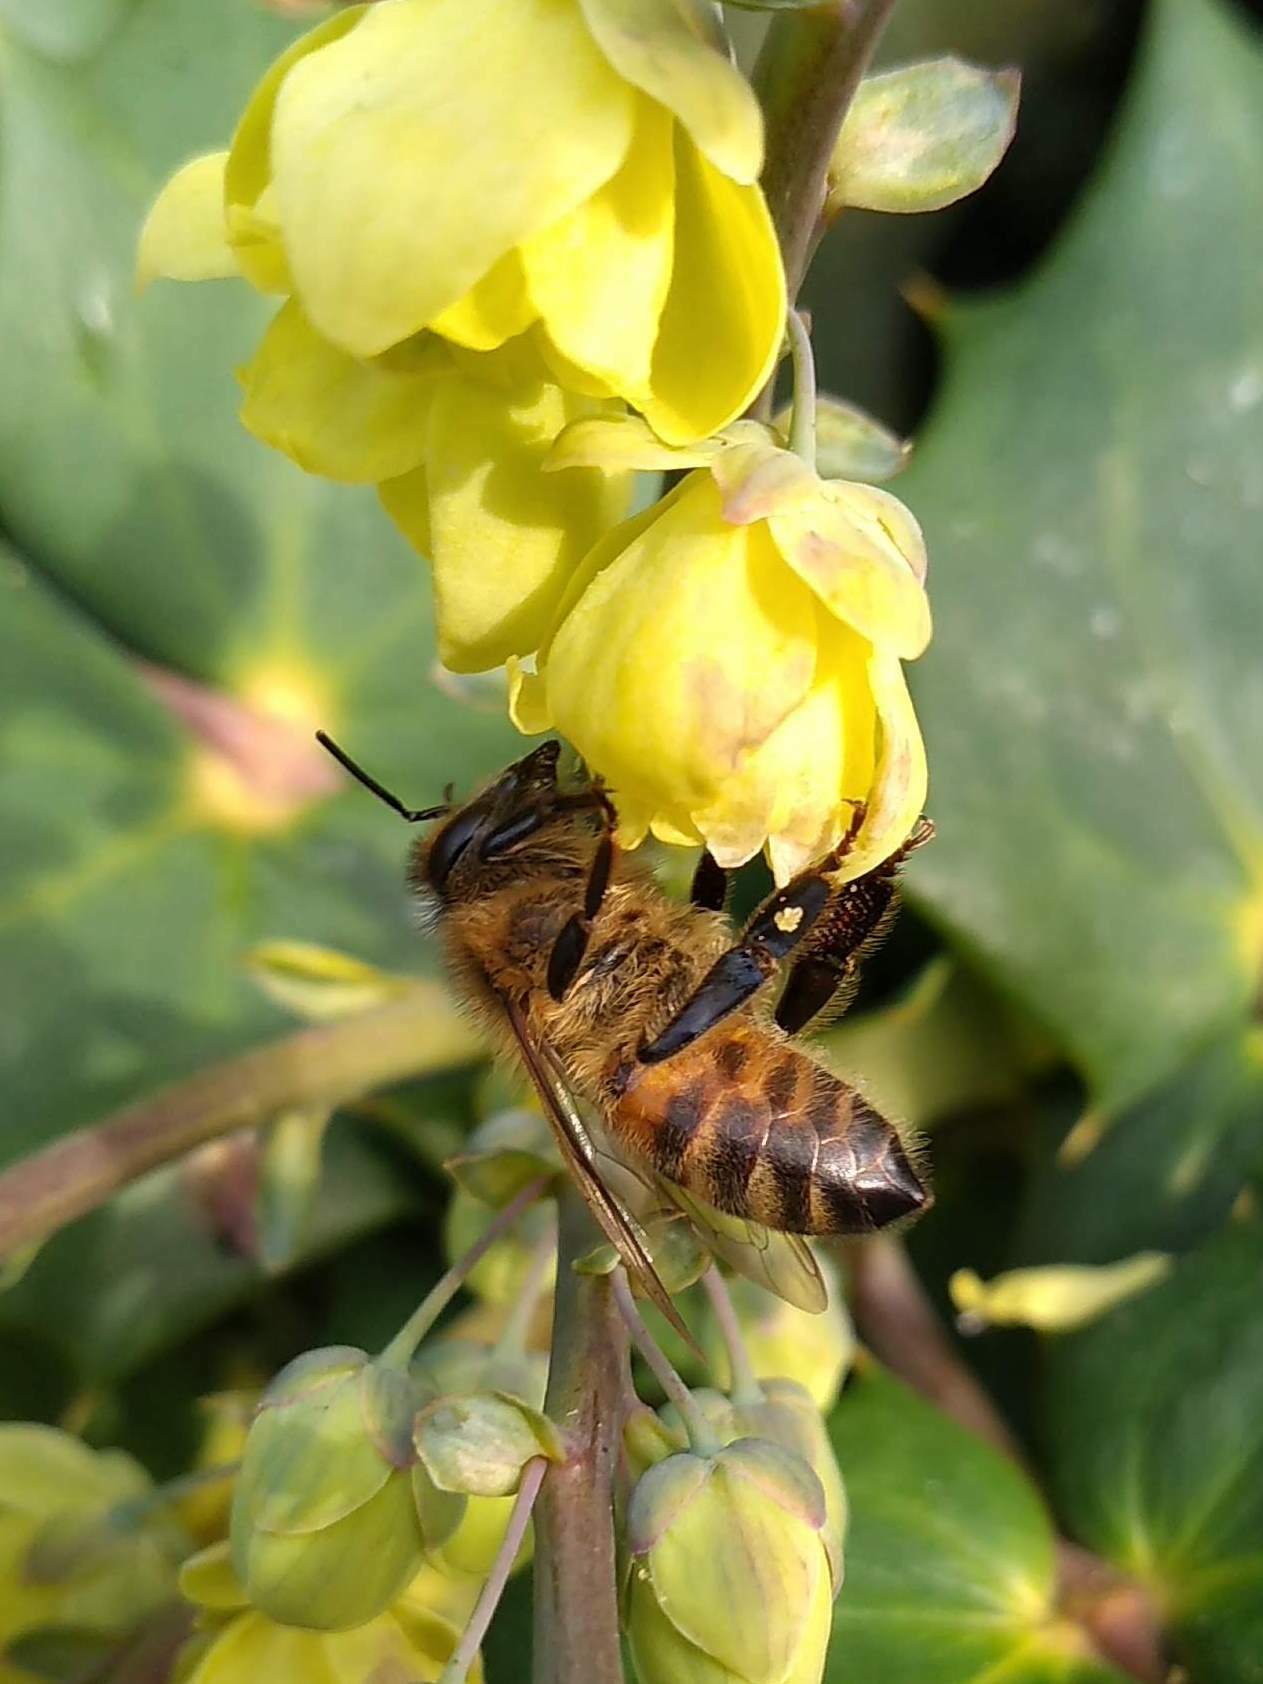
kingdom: Animalia
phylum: Arthropoda
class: Insecta
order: Hymenoptera
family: Apidae
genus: Apis
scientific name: Apis mellifera
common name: Honey bee
